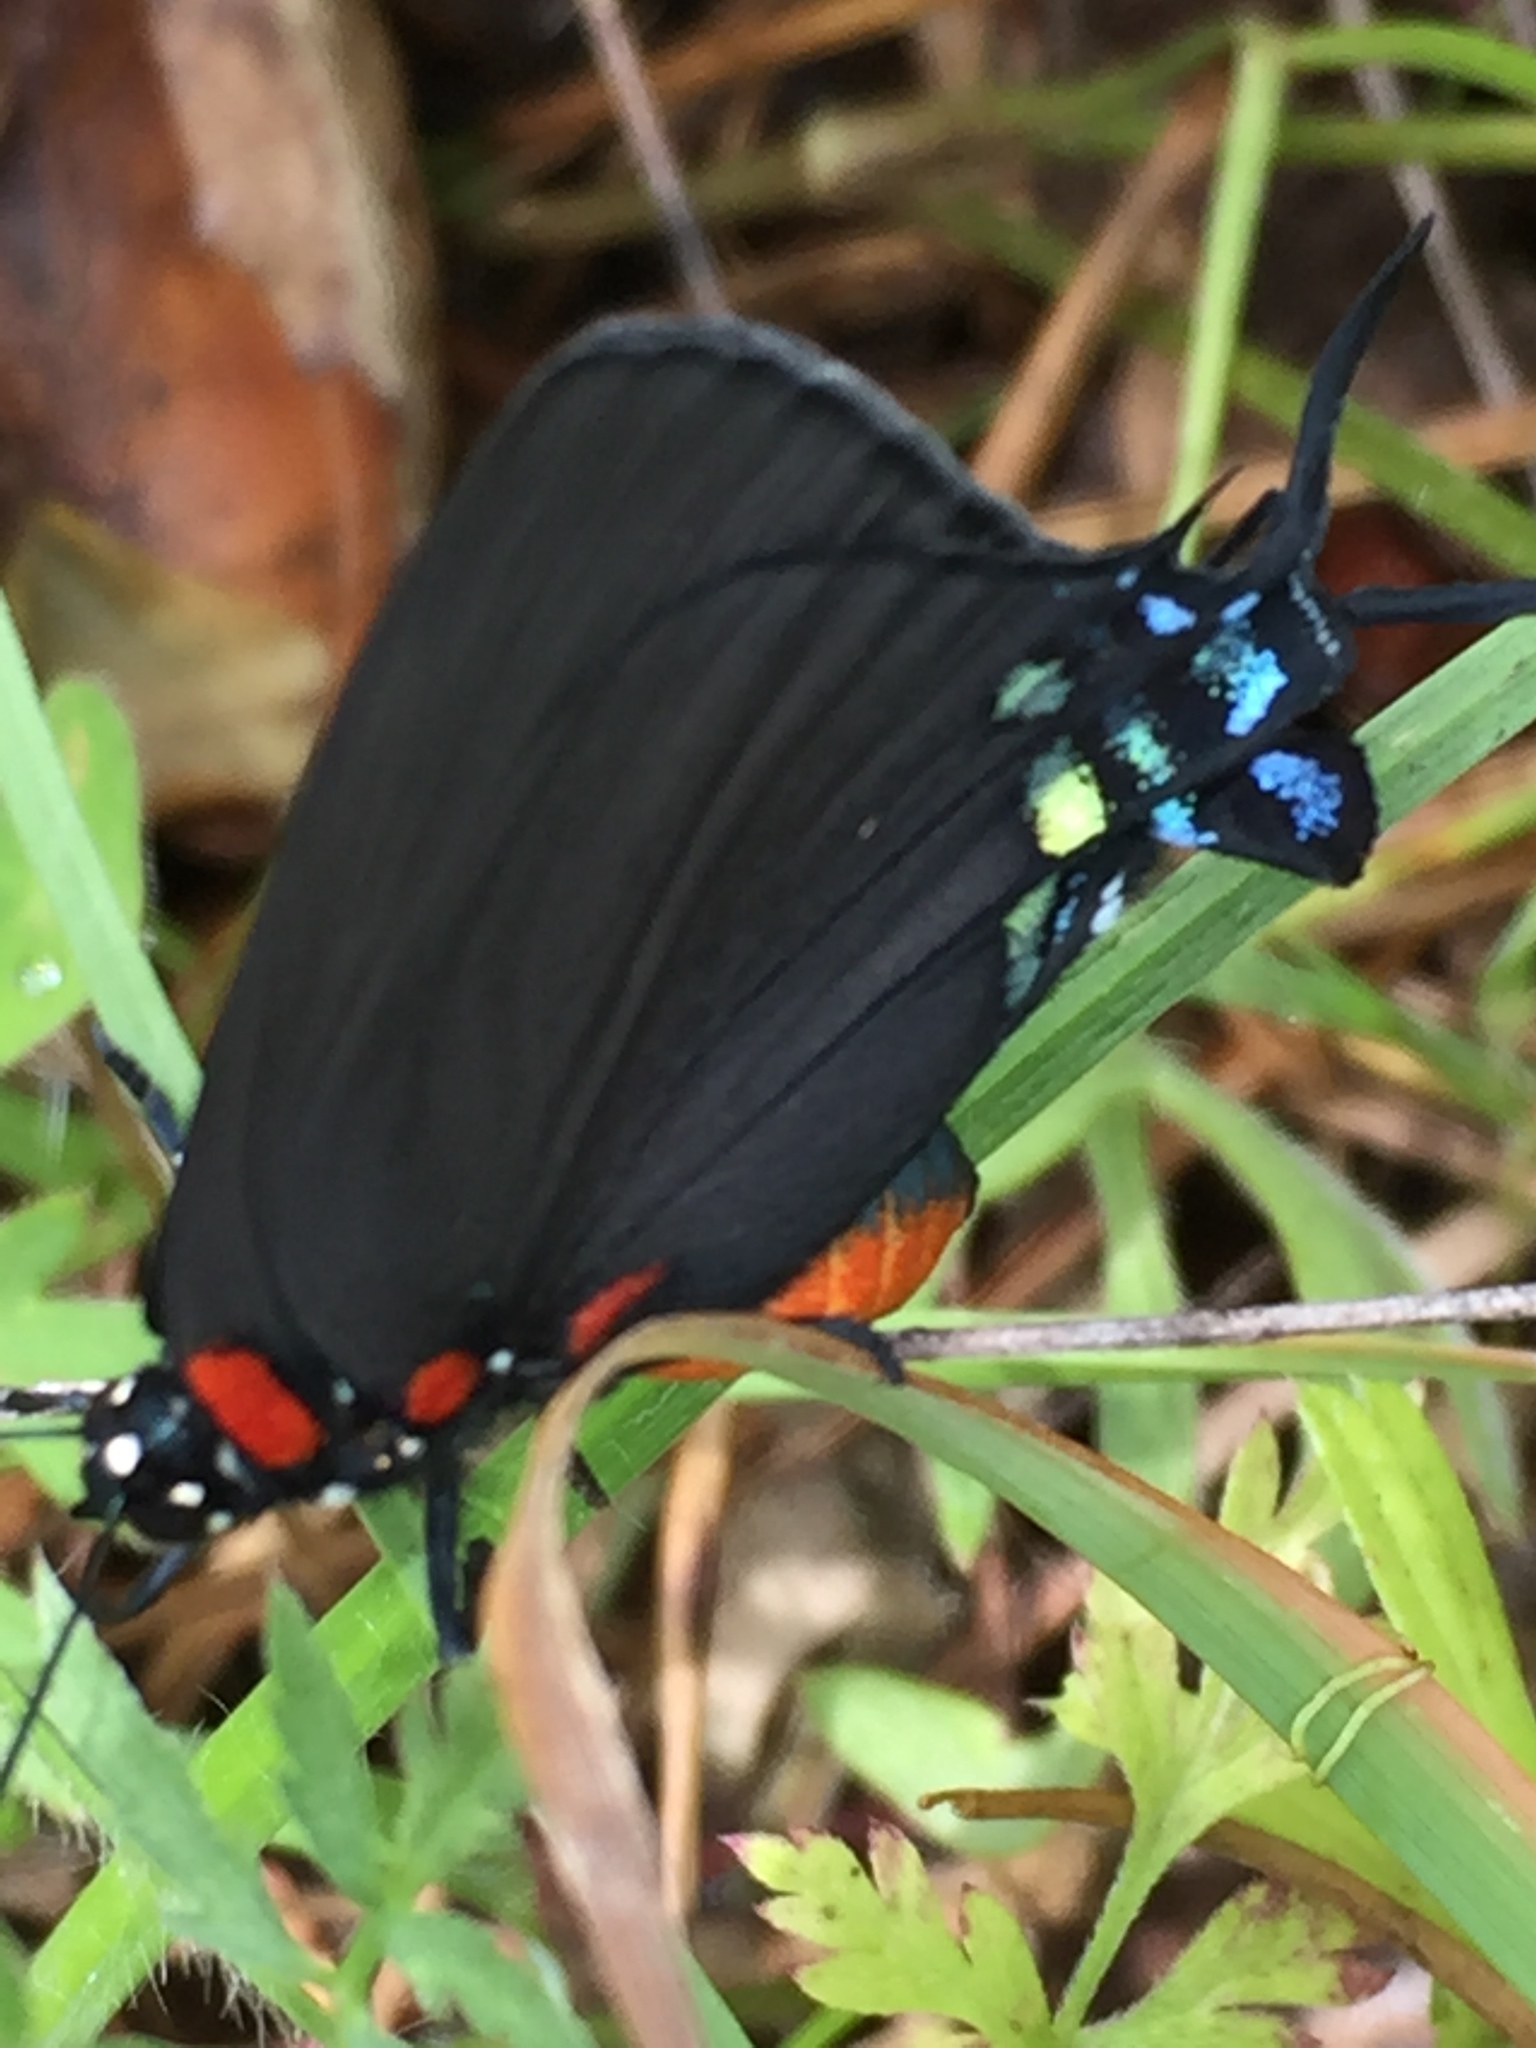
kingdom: Animalia
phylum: Arthropoda
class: Insecta
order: Lepidoptera
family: Lycaenidae
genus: Atlides
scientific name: Atlides halesus
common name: Great purple hairstreak
